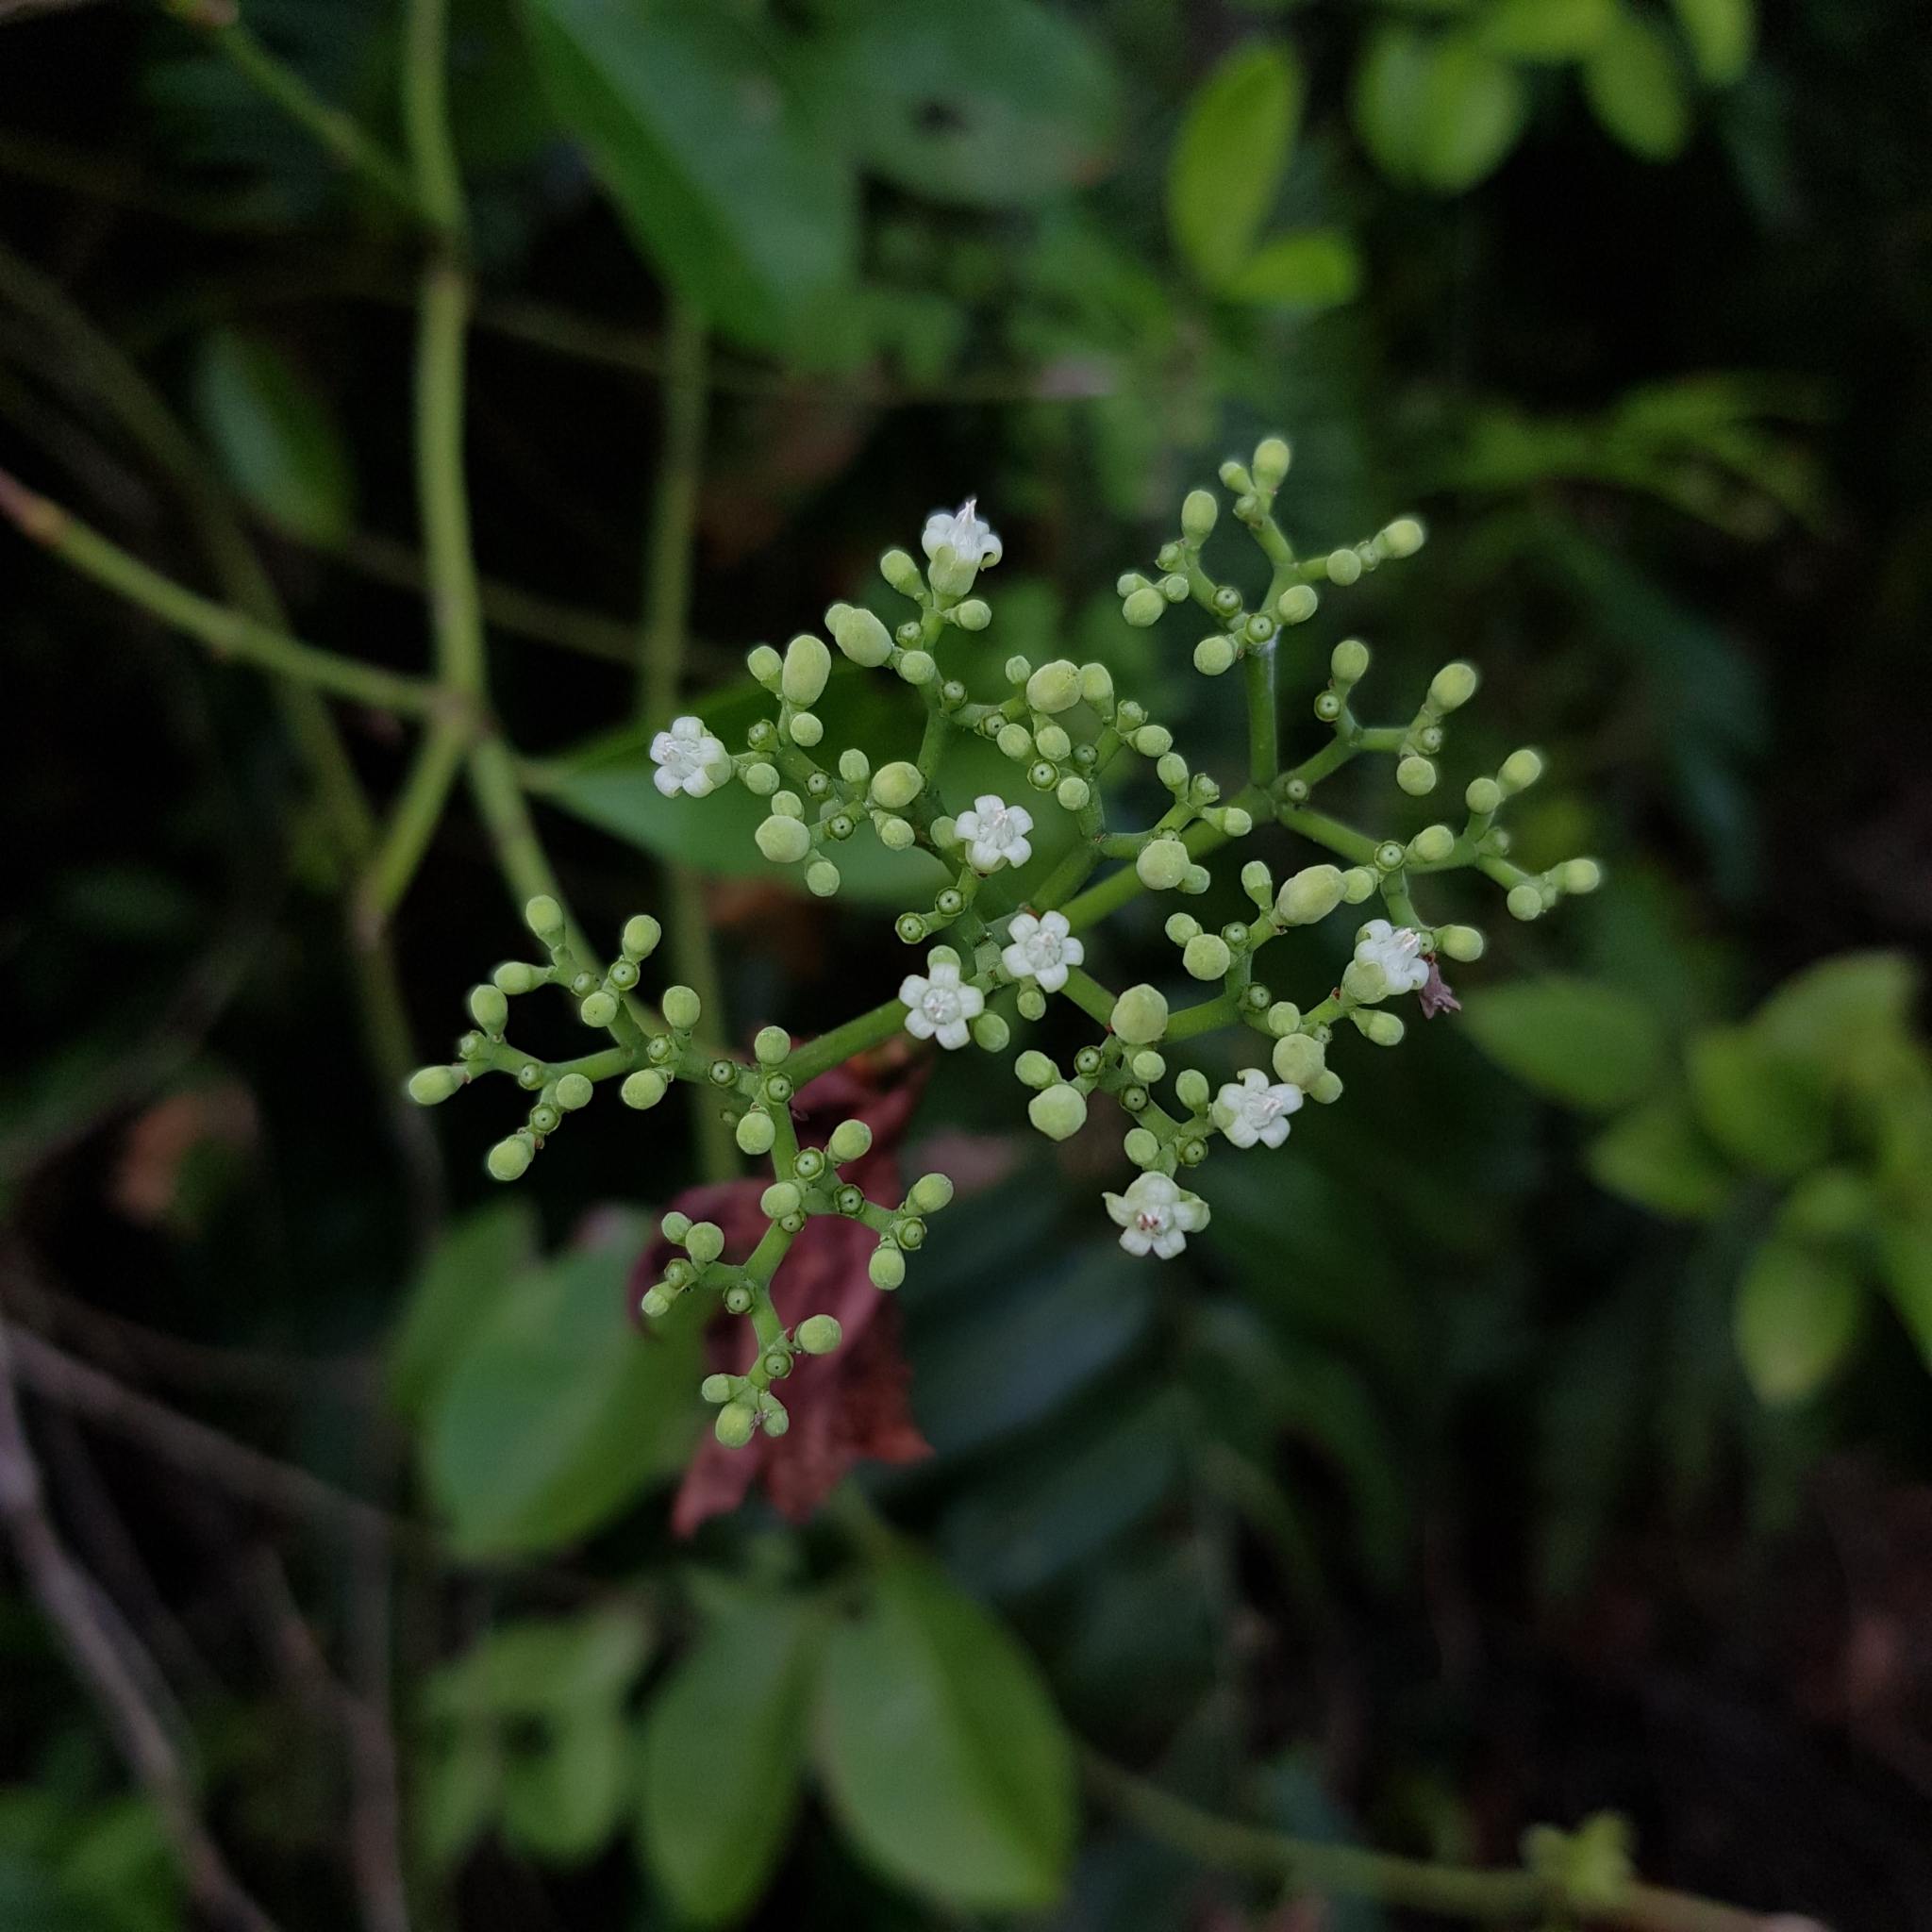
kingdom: Plantae
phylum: Tracheophyta
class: Magnoliopsida
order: Gentianales
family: Rubiaceae
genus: Psychotria
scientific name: Psychotria polycarpa
